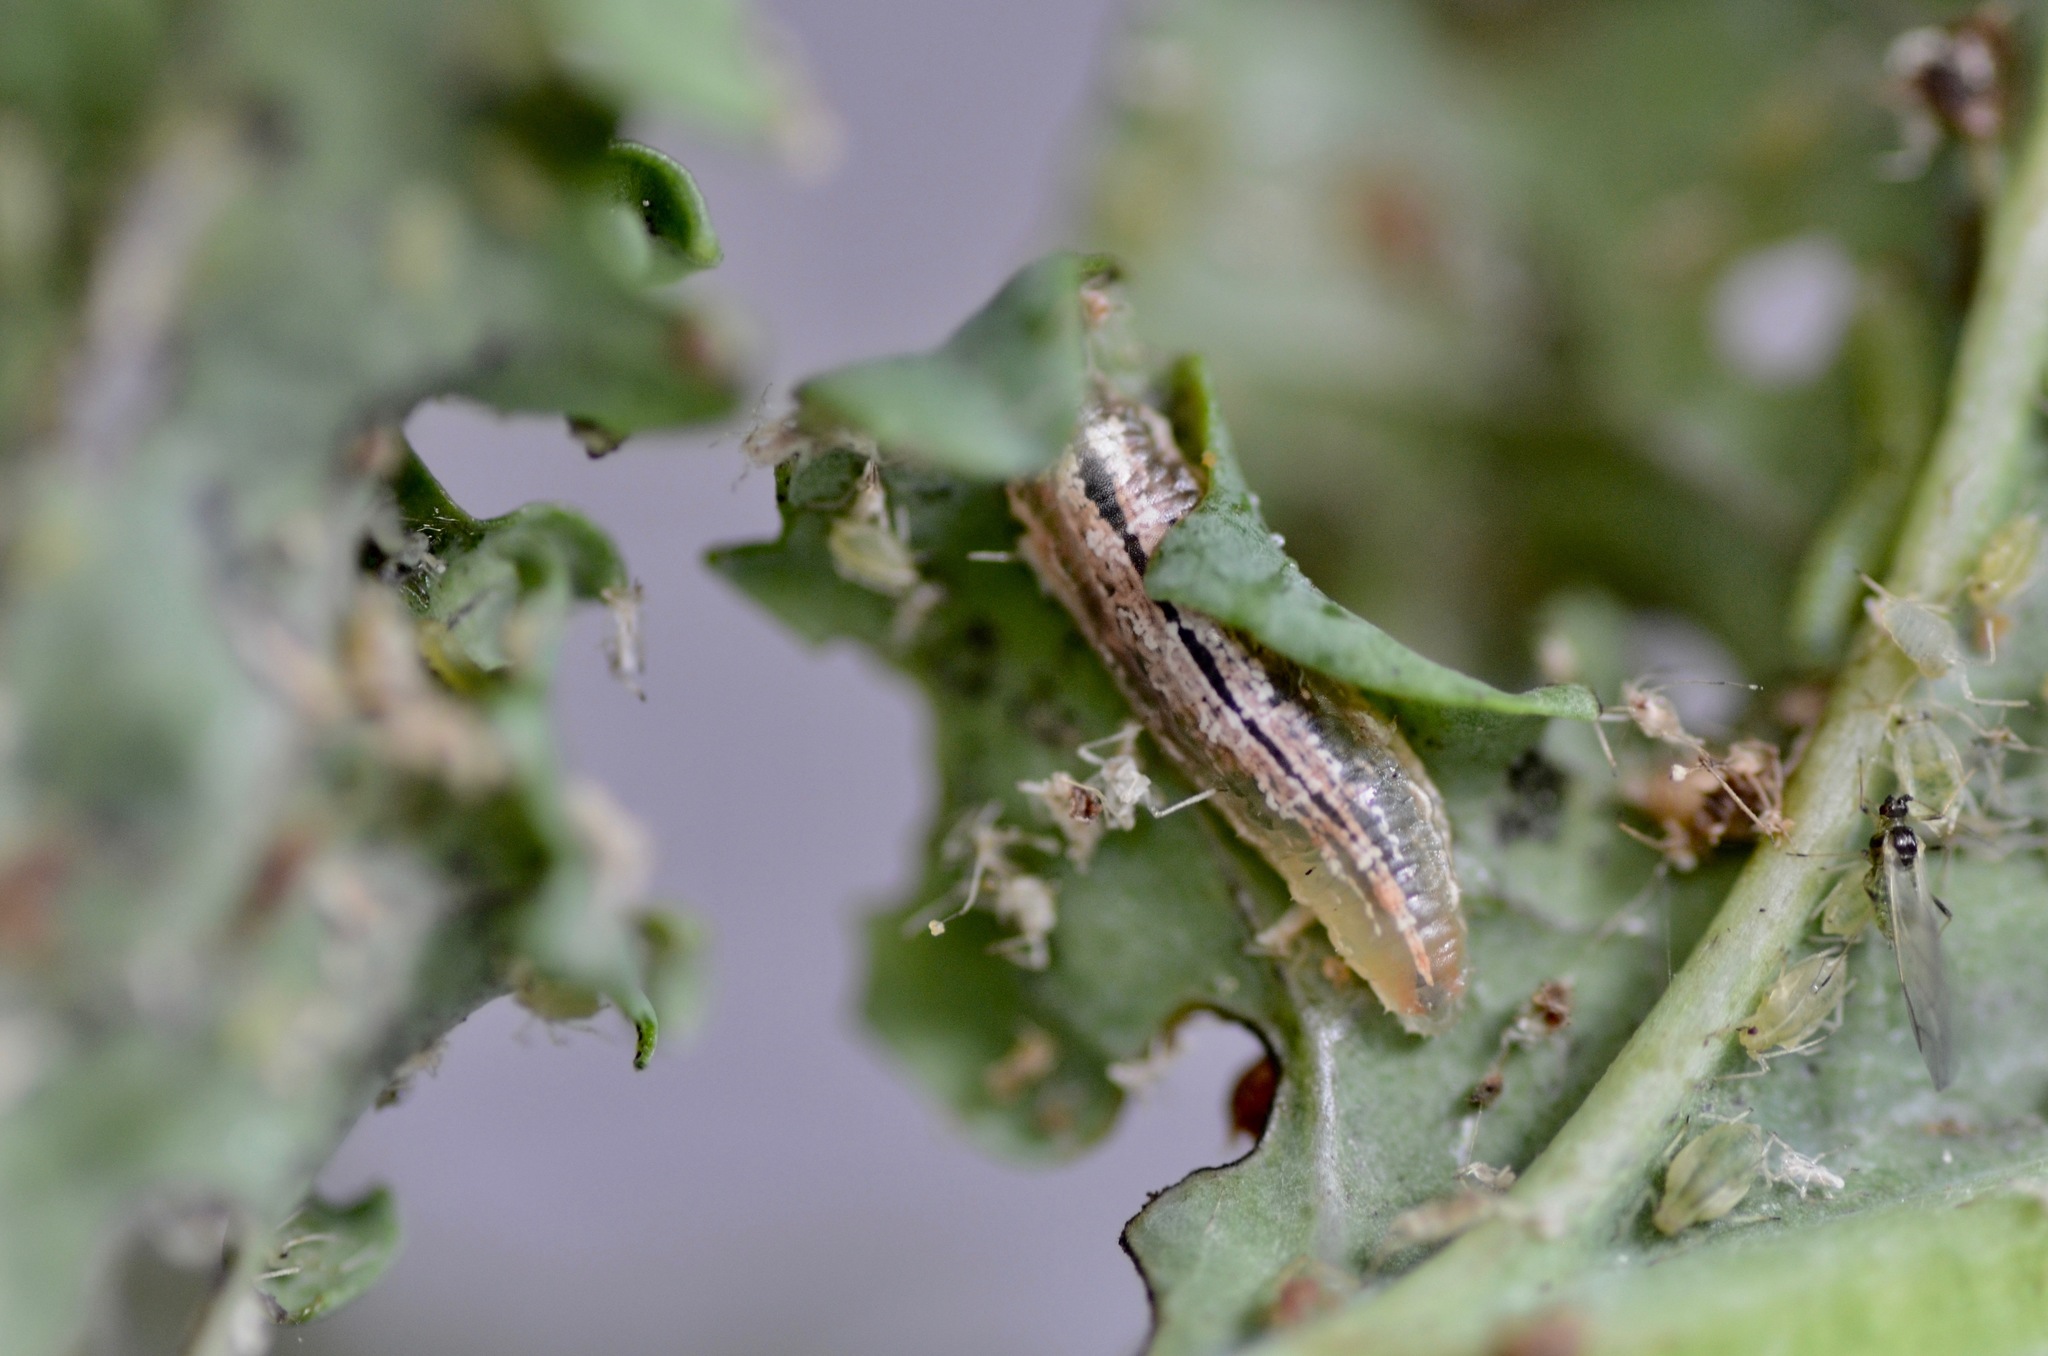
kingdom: Animalia
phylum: Arthropoda
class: Insecta
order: Diptera
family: Syrphidae
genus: Melangyna
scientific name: Melangyna novaezelandiae
